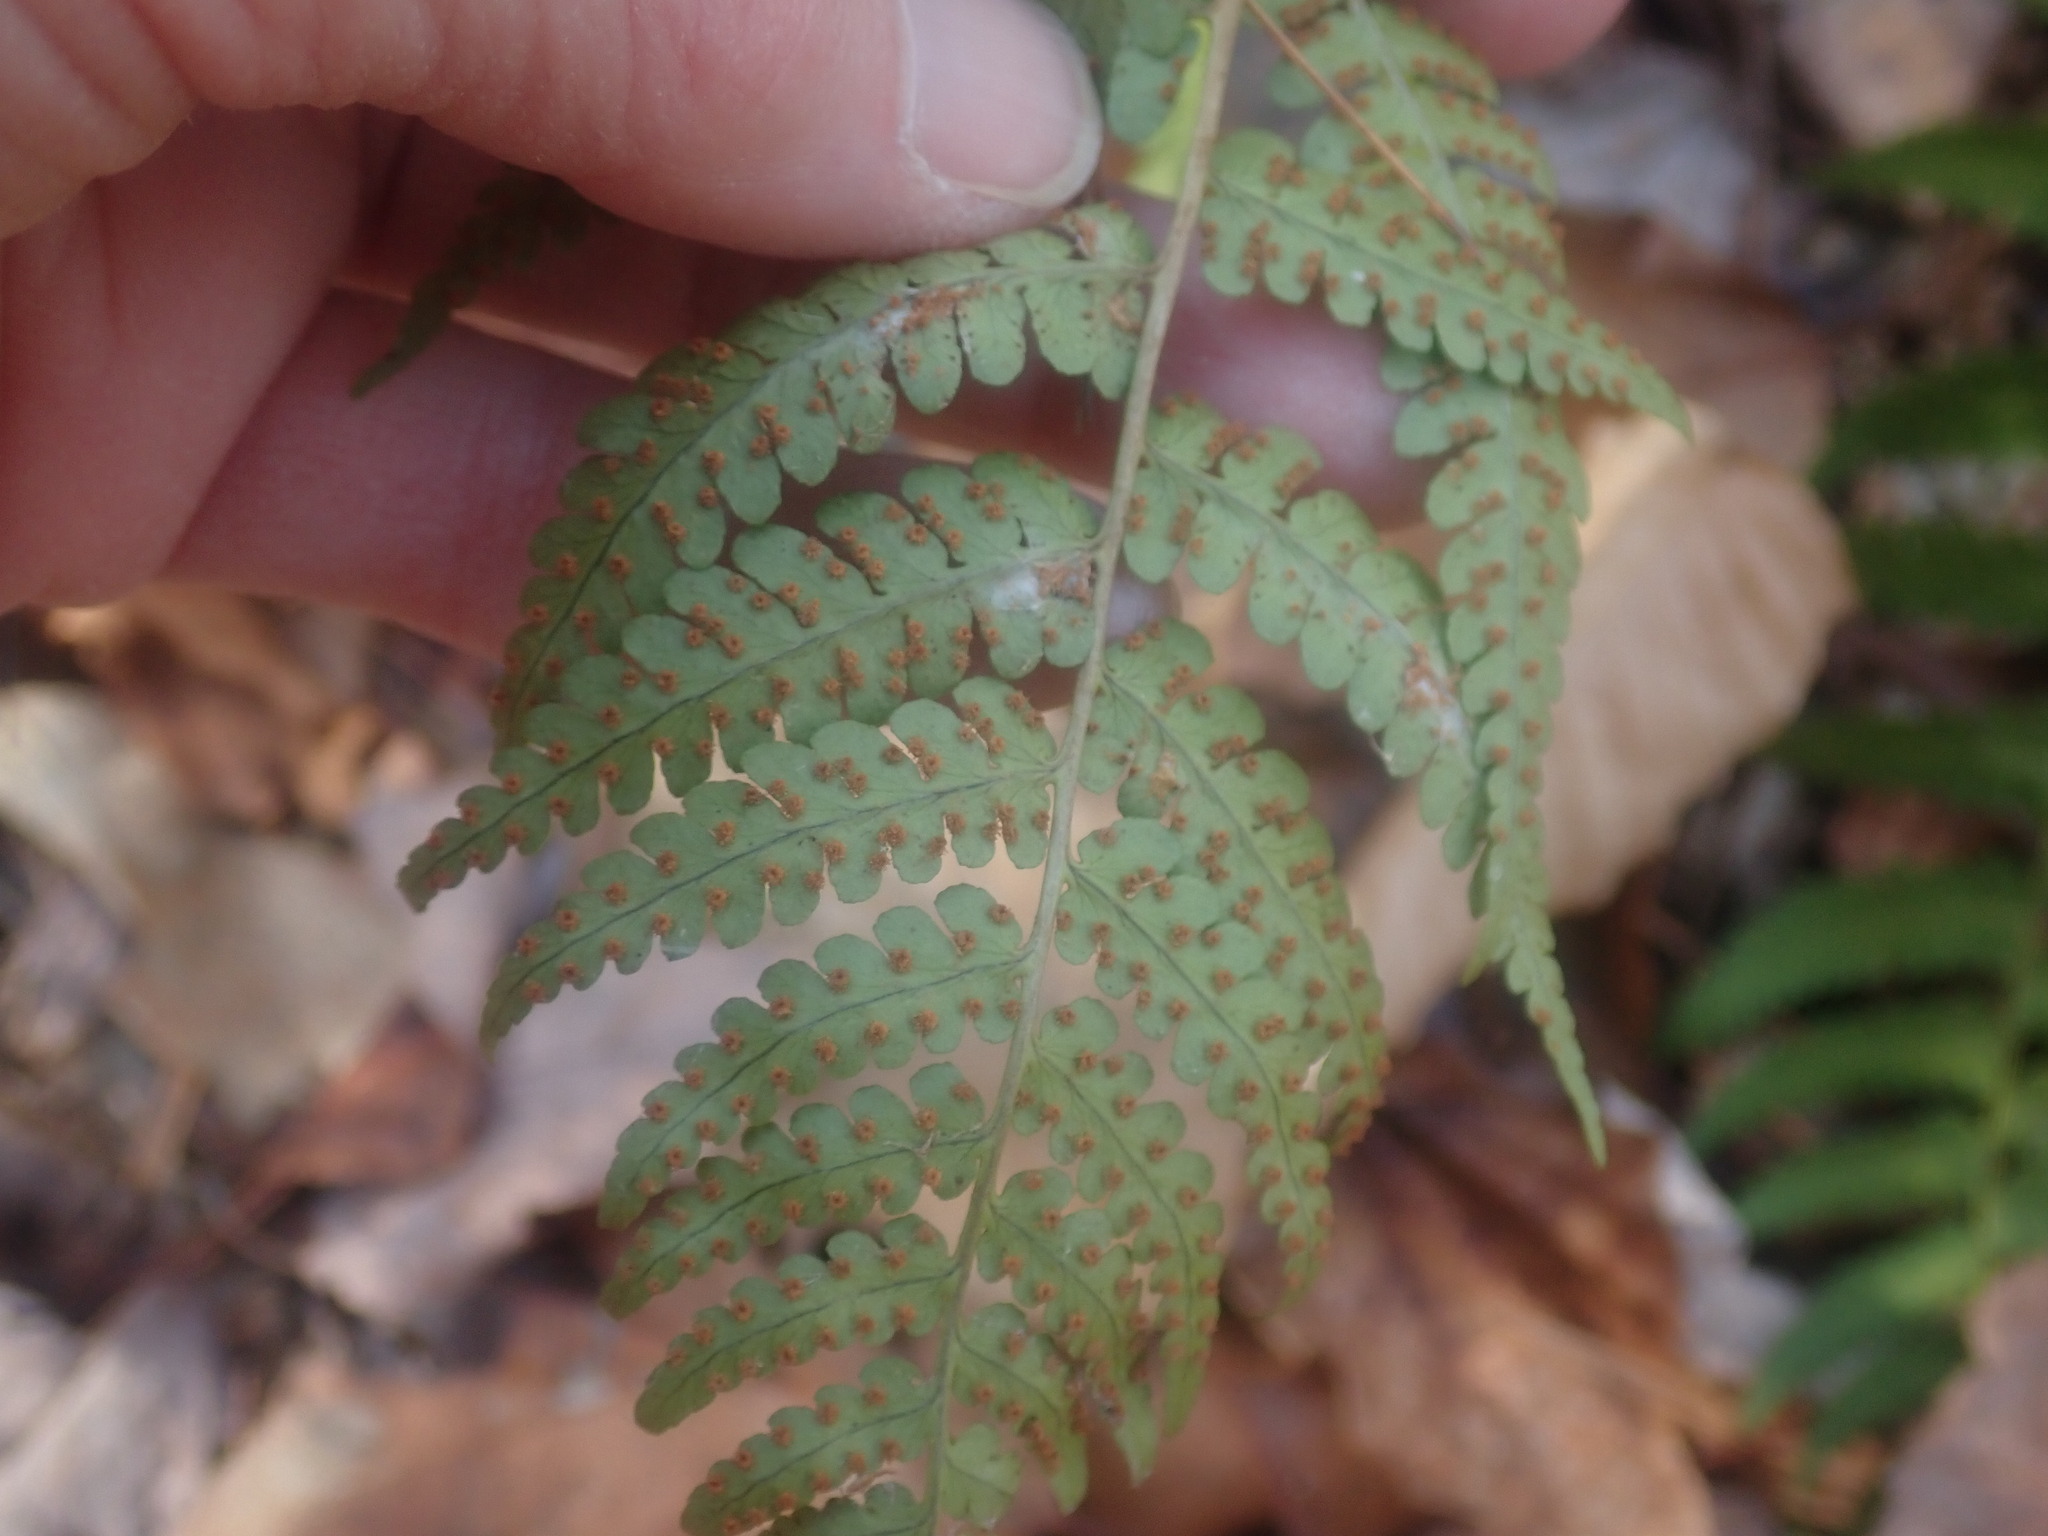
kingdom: Plantae
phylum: Tracheophyta
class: Polypodiopsida
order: Polypodiales
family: Dryopteridaceae
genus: Dryopteris
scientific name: Dryopteris marginalis
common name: Marginal wood fern
